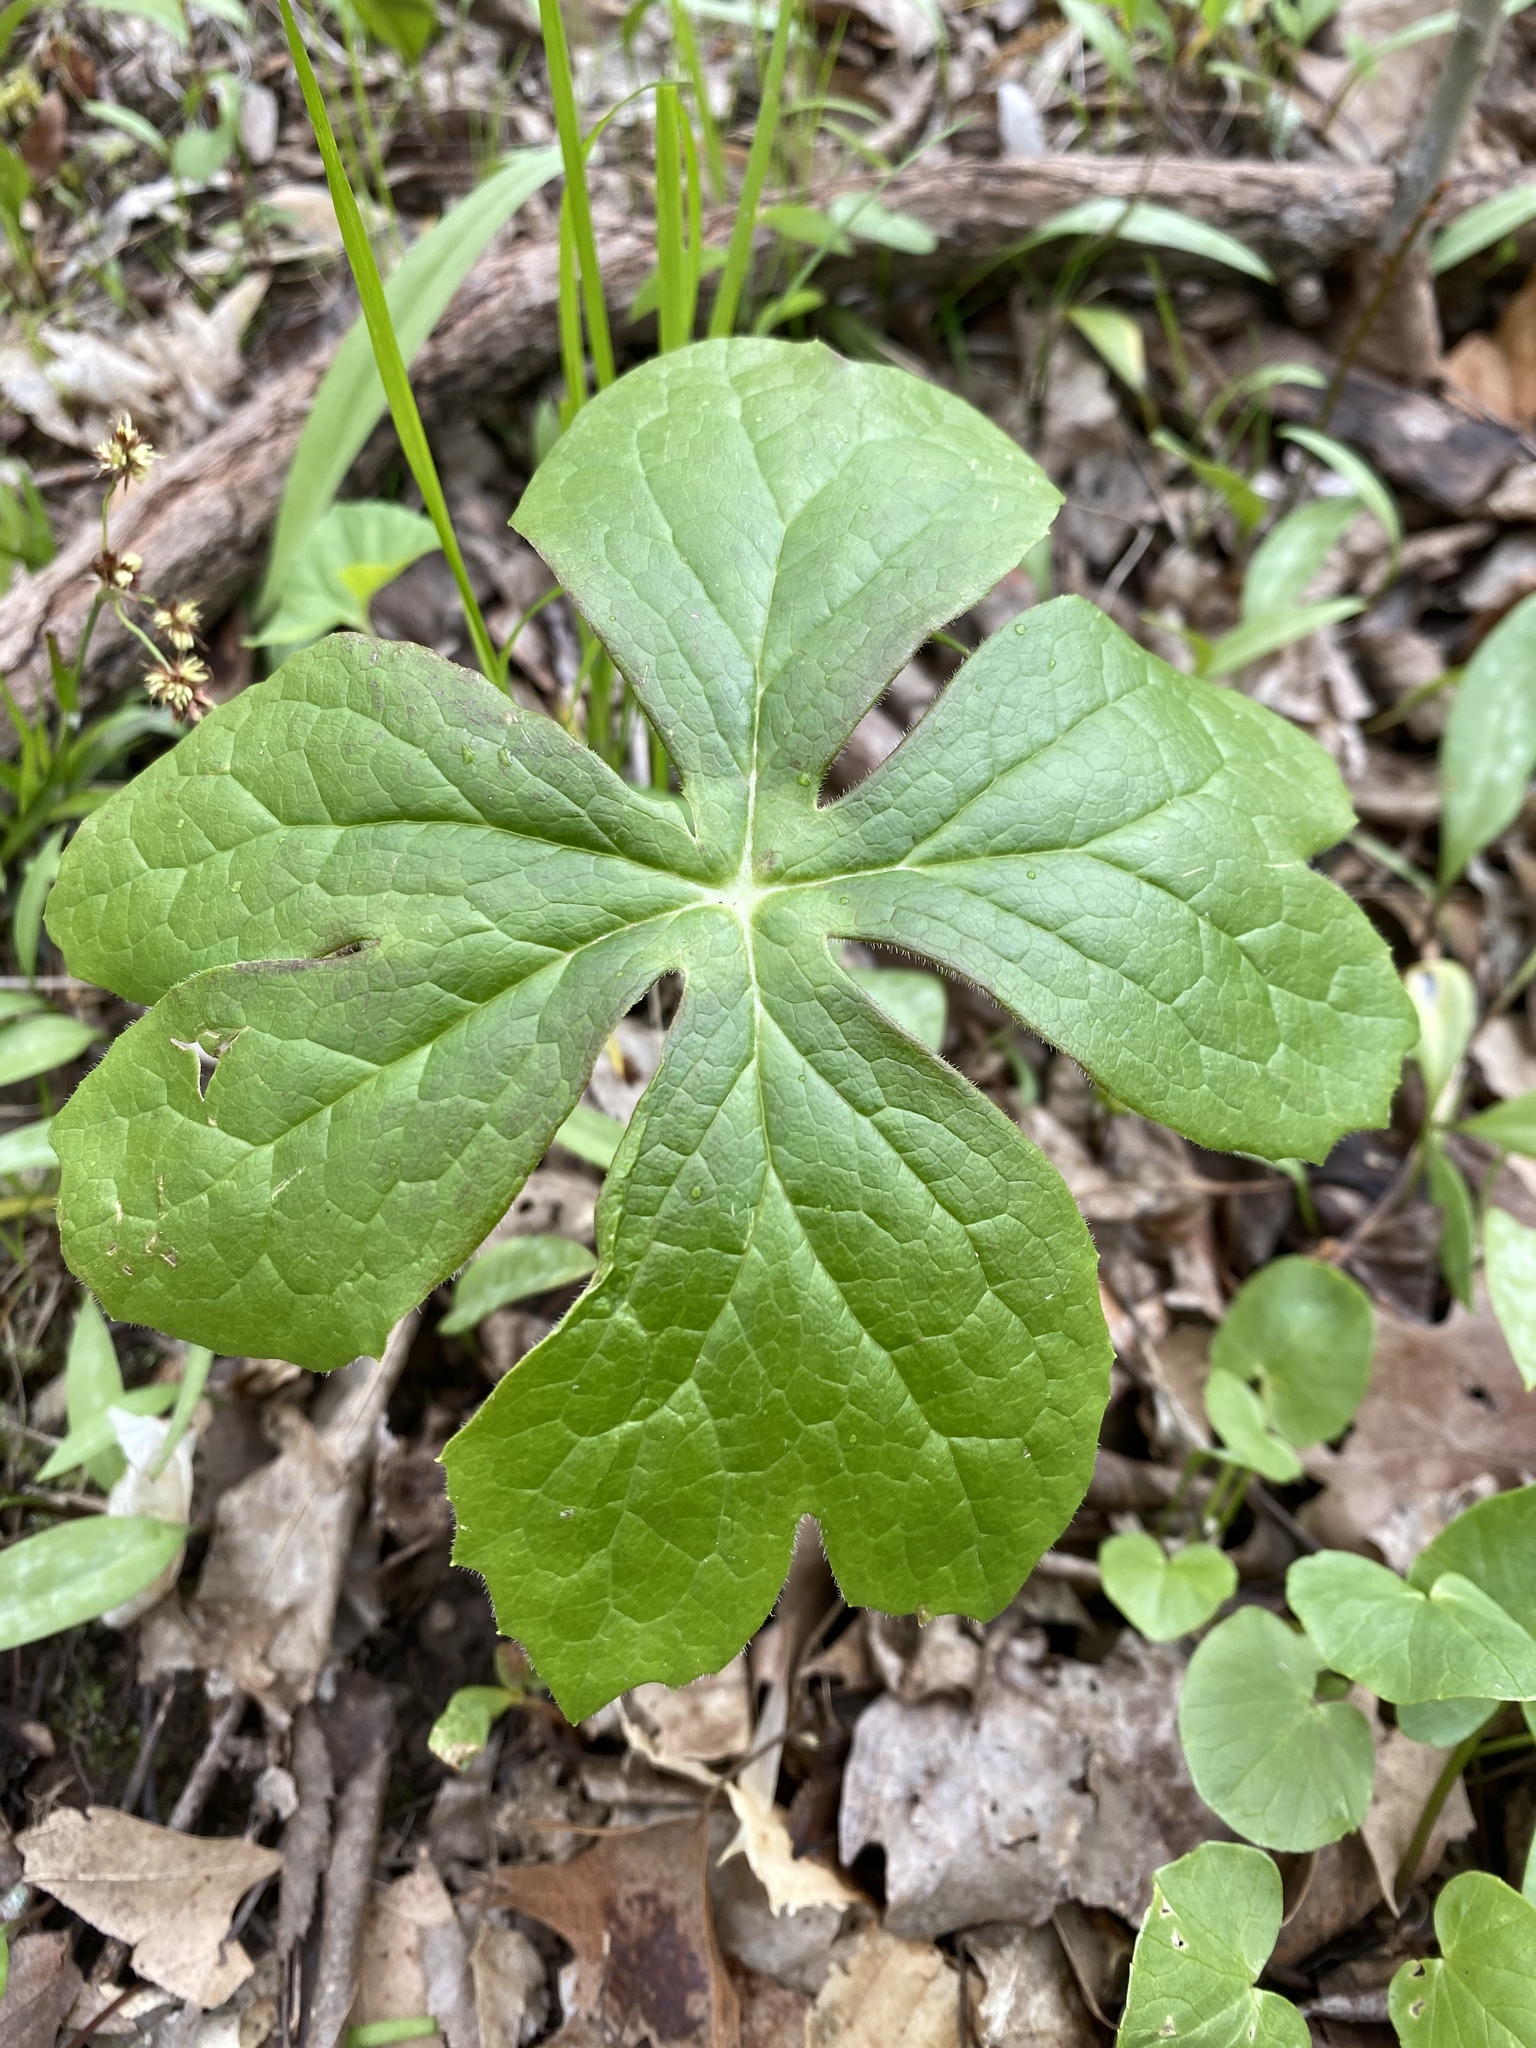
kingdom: Plantae
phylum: Tracheophyta
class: Magnoliopsida
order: Ranunculales
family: Berberidaceae
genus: Podophyllum
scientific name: Podophyllum peltatum
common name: Wild mandrake
